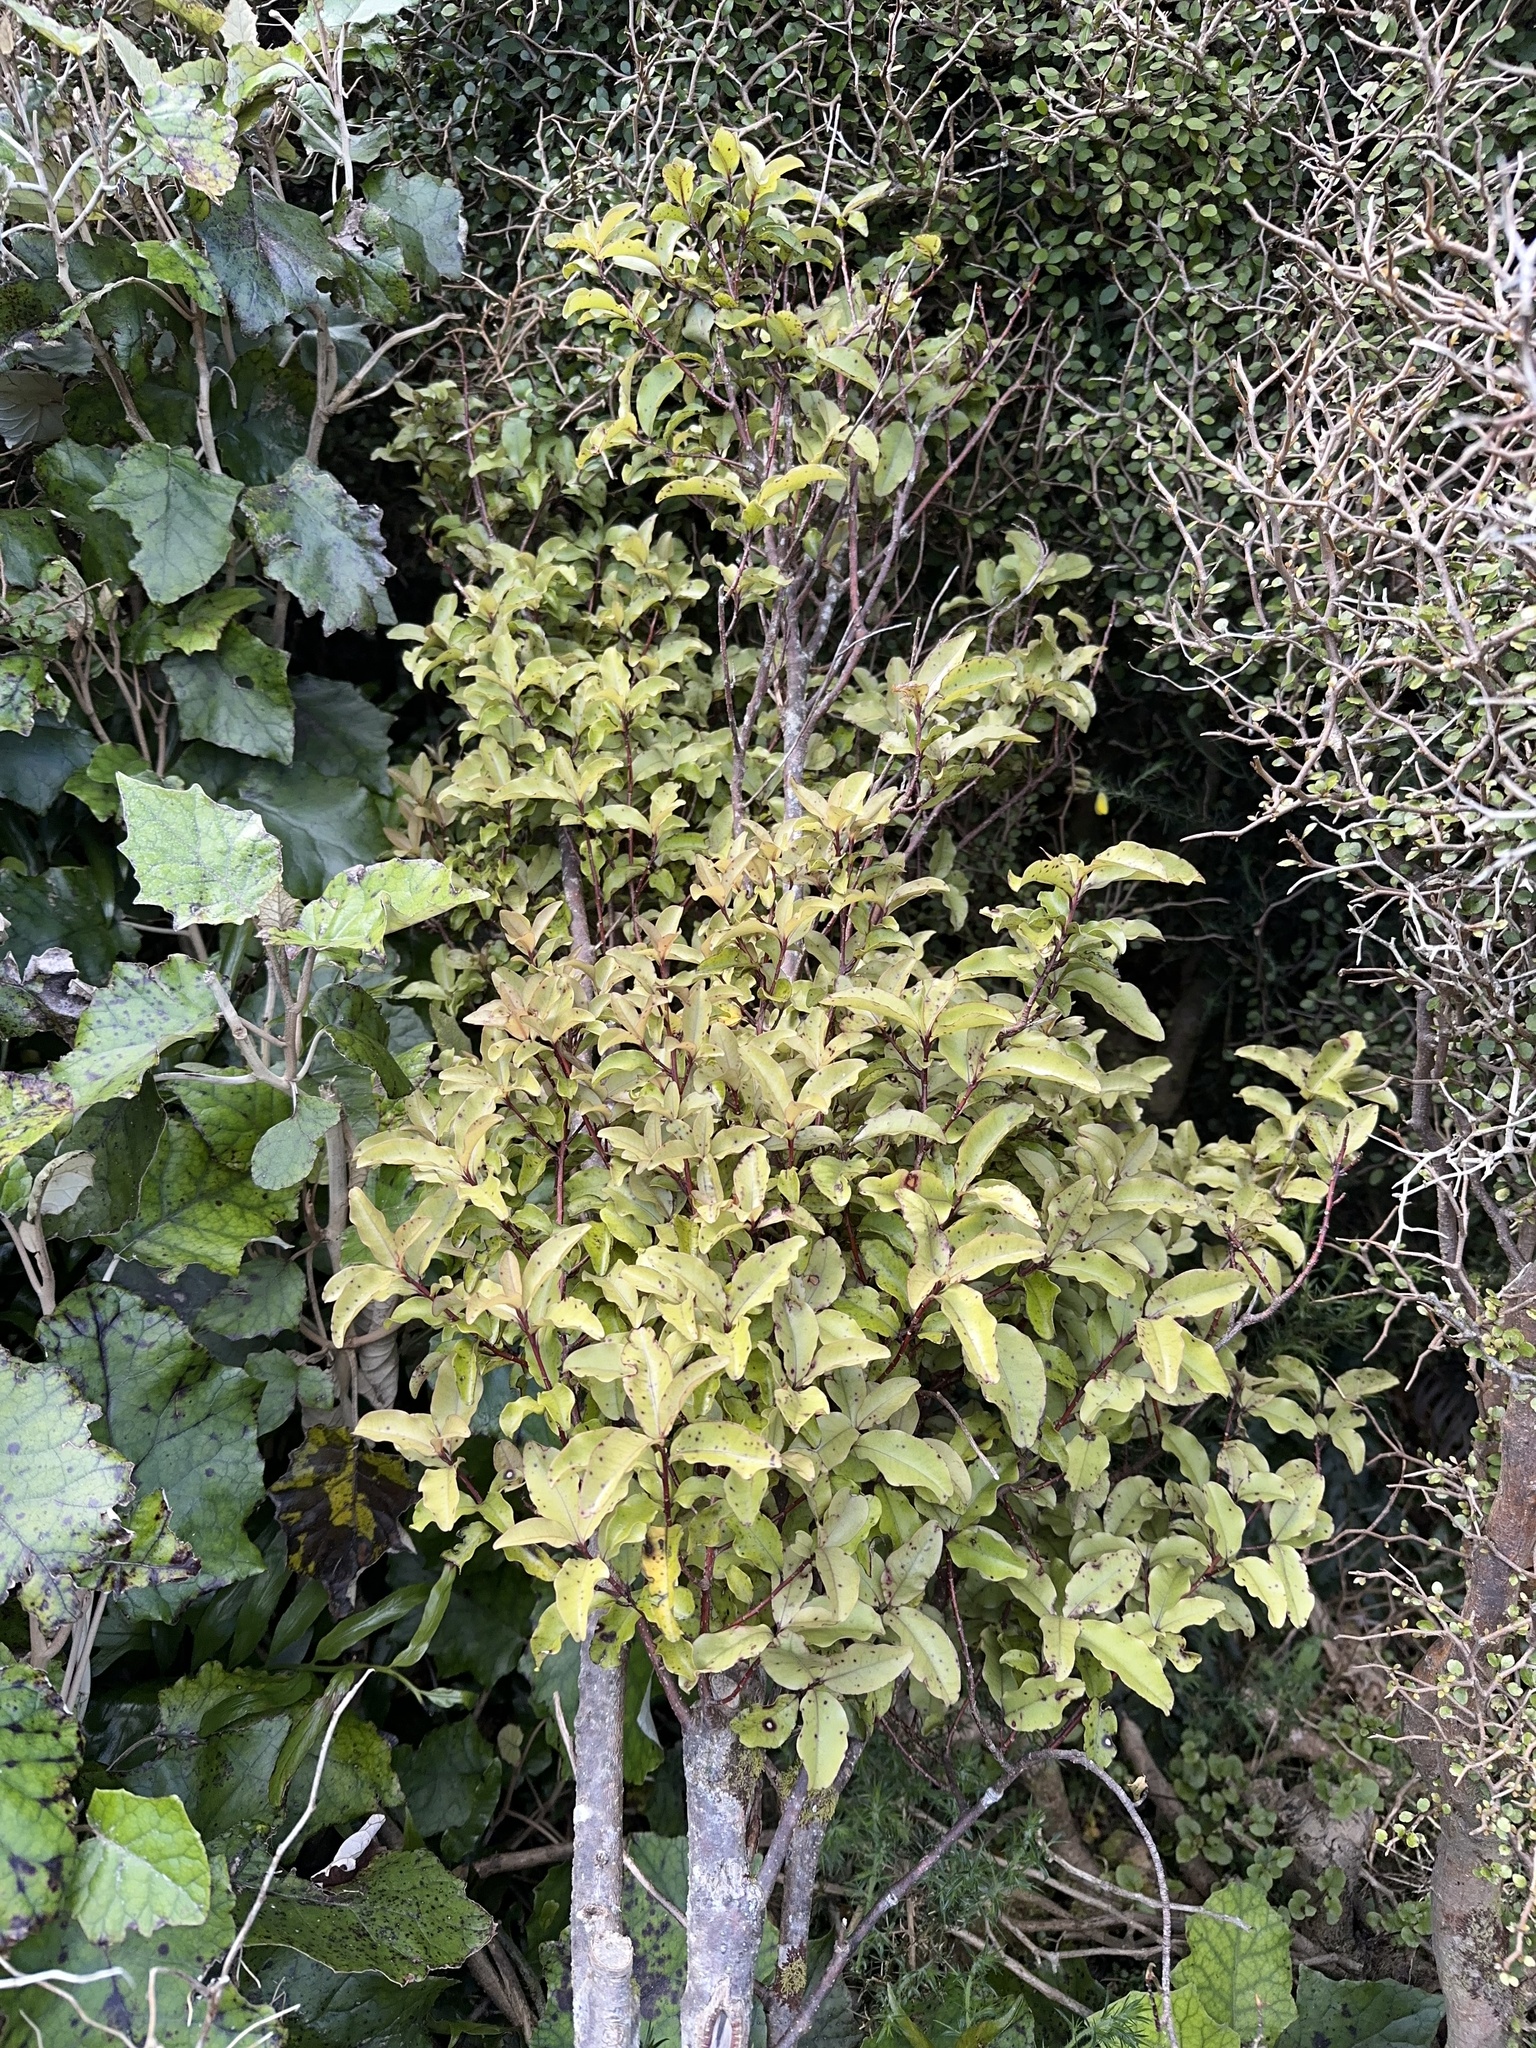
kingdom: Plantae
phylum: Tracheophyta
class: Magnoliopsida
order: Ericales
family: Primulaceae
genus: Myrsine
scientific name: Myrsine australis
